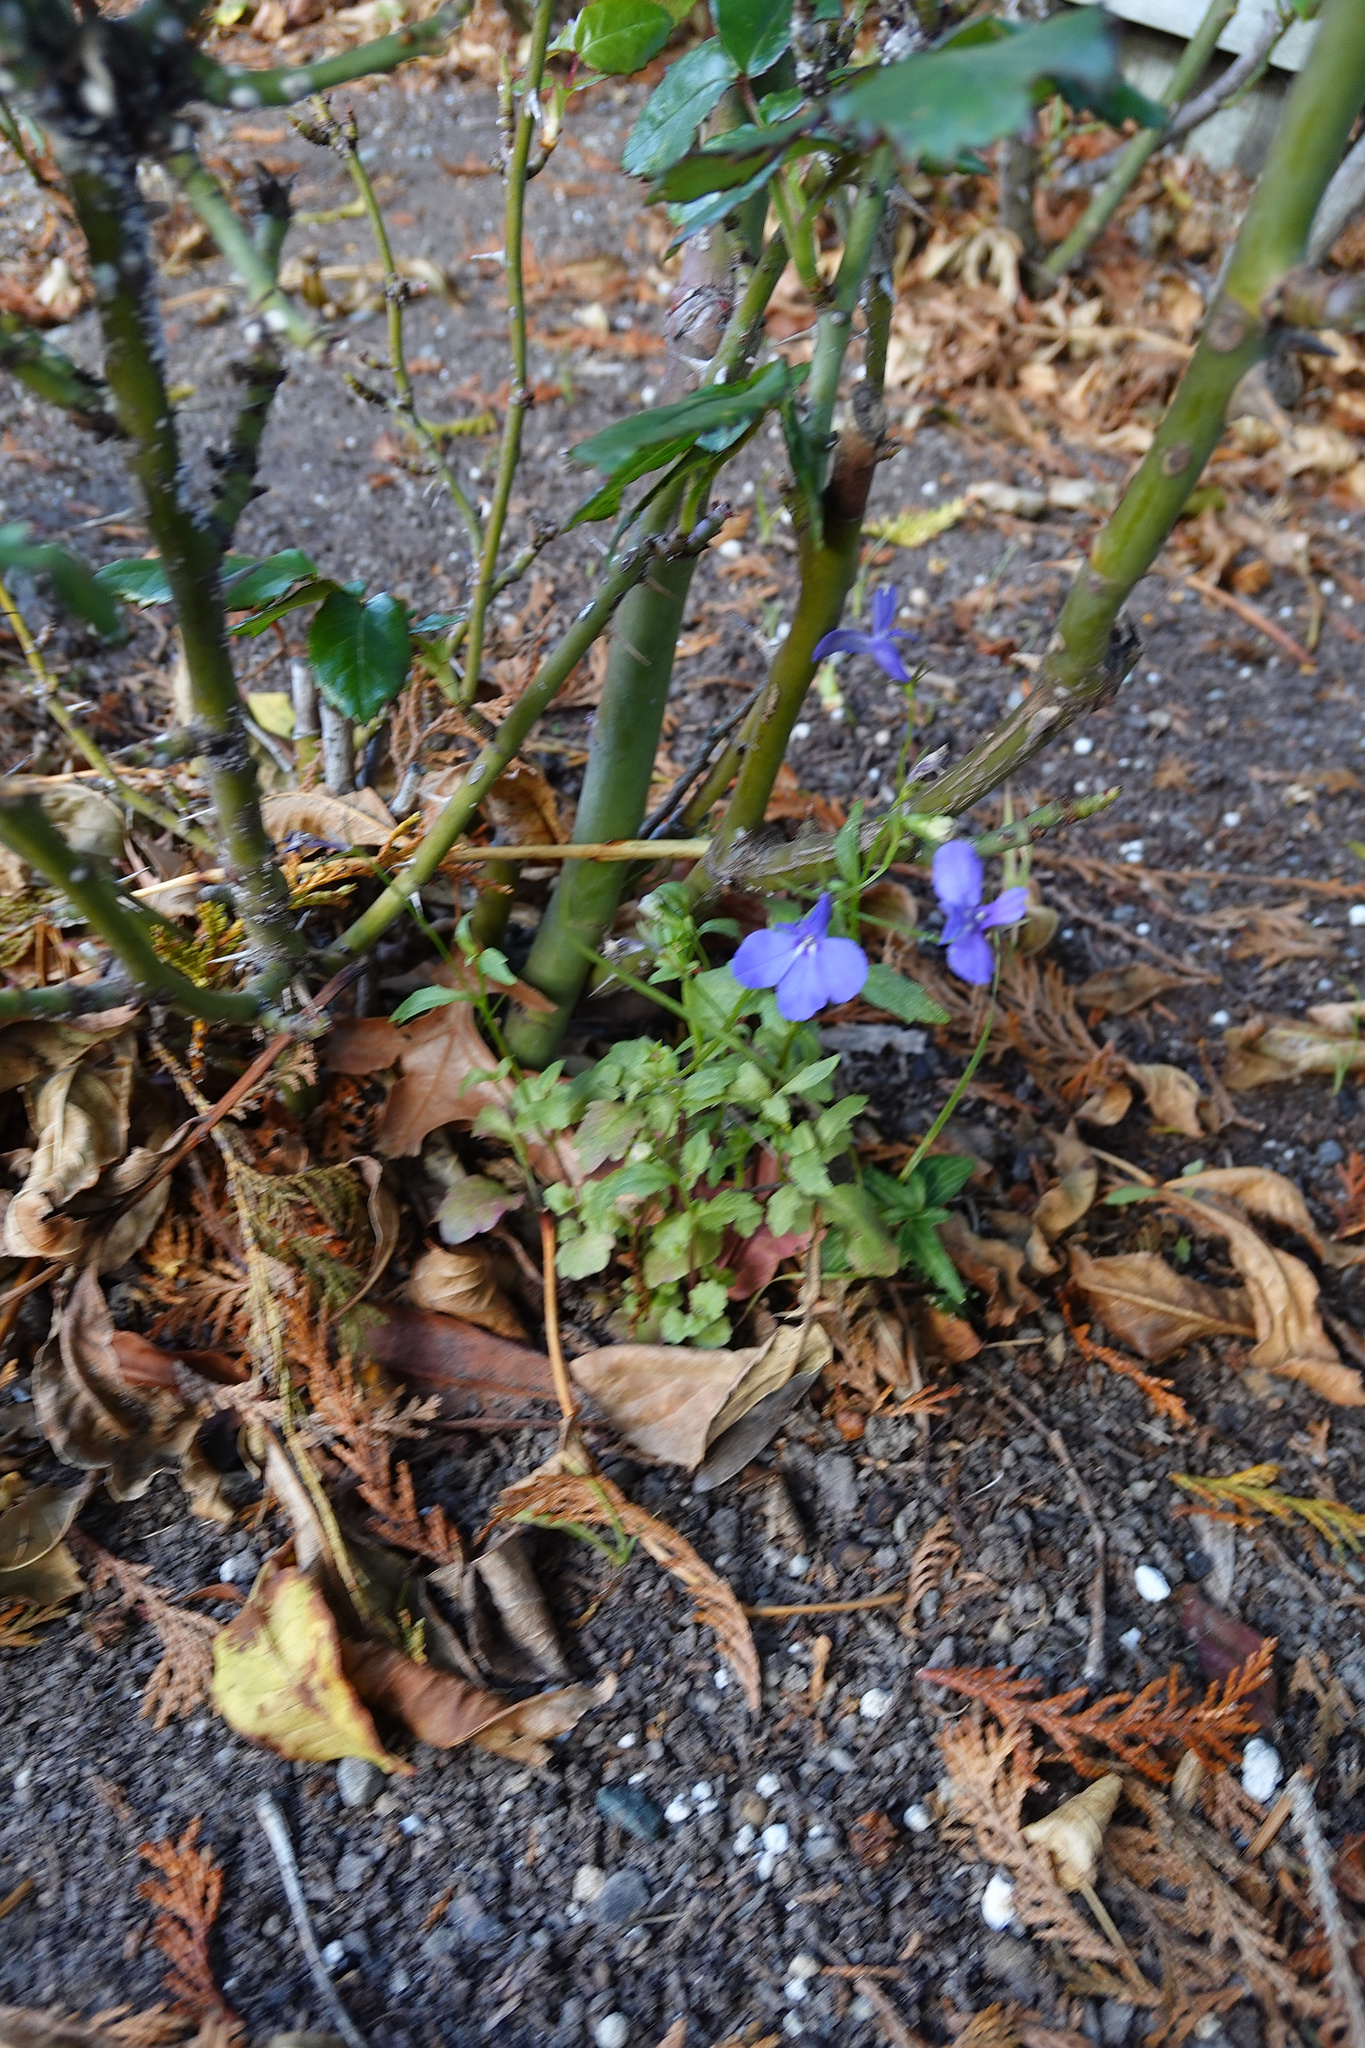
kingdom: Plantae
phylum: Tracheophyta
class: Magnoliopsida
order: Asterales
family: Campanulaceae
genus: Lobelia
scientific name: Lobelia erinus
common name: Edging lobelia
